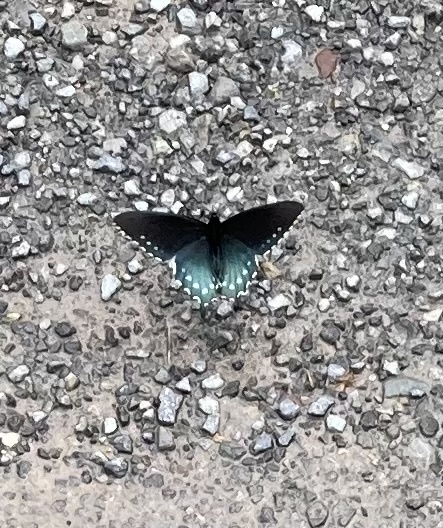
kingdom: Animalia
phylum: Arthropoda
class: Insecta
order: Lepidoptera
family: Papilionidae
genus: Battus
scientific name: Battus philenor
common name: Pipevine swallowtail
